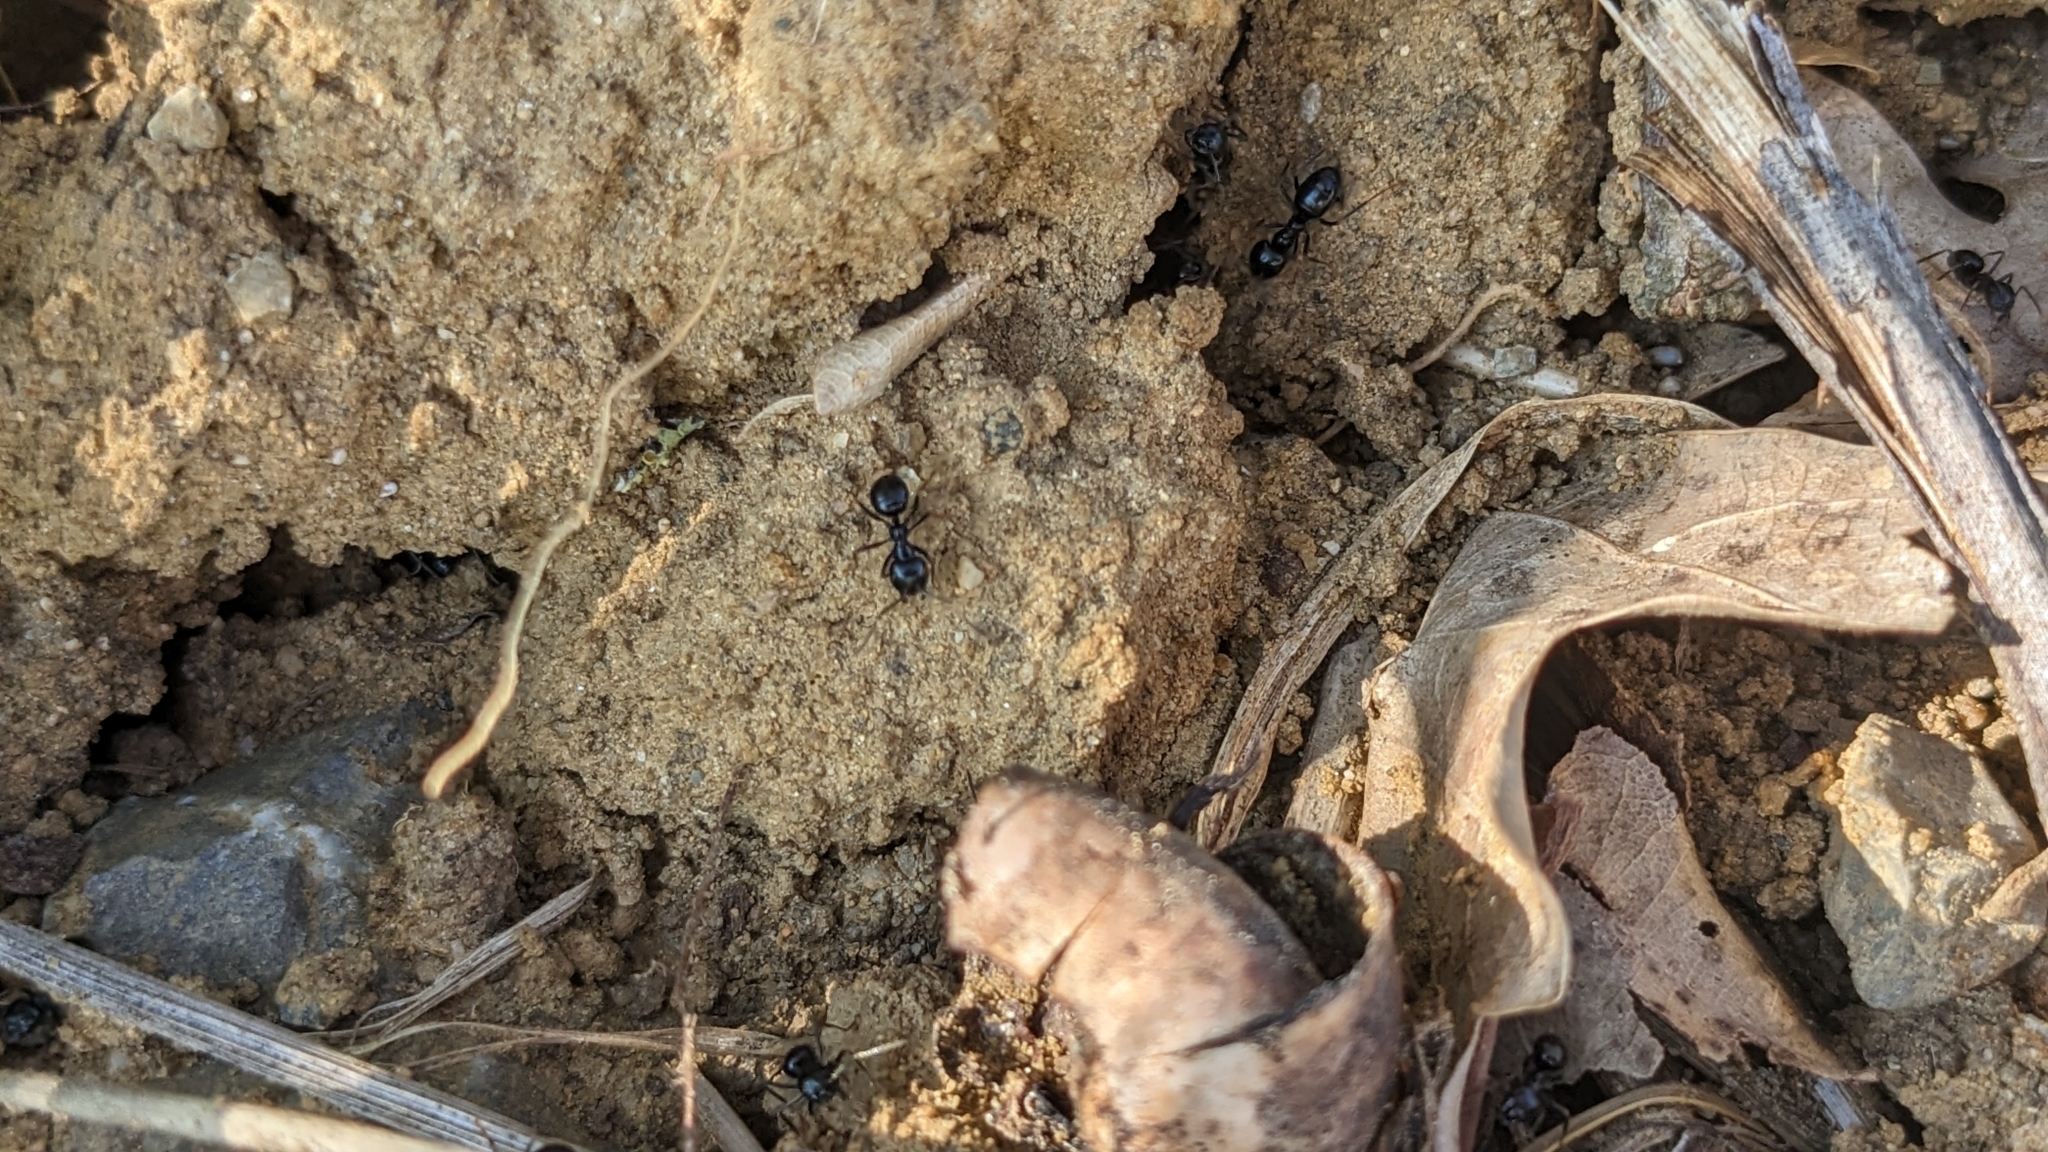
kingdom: Animalia
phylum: Arthropoda
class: Insecta
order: Hymenoptera
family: Formicidae
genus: Lasius
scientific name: Lasius fuliginosus
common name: Jet ant
